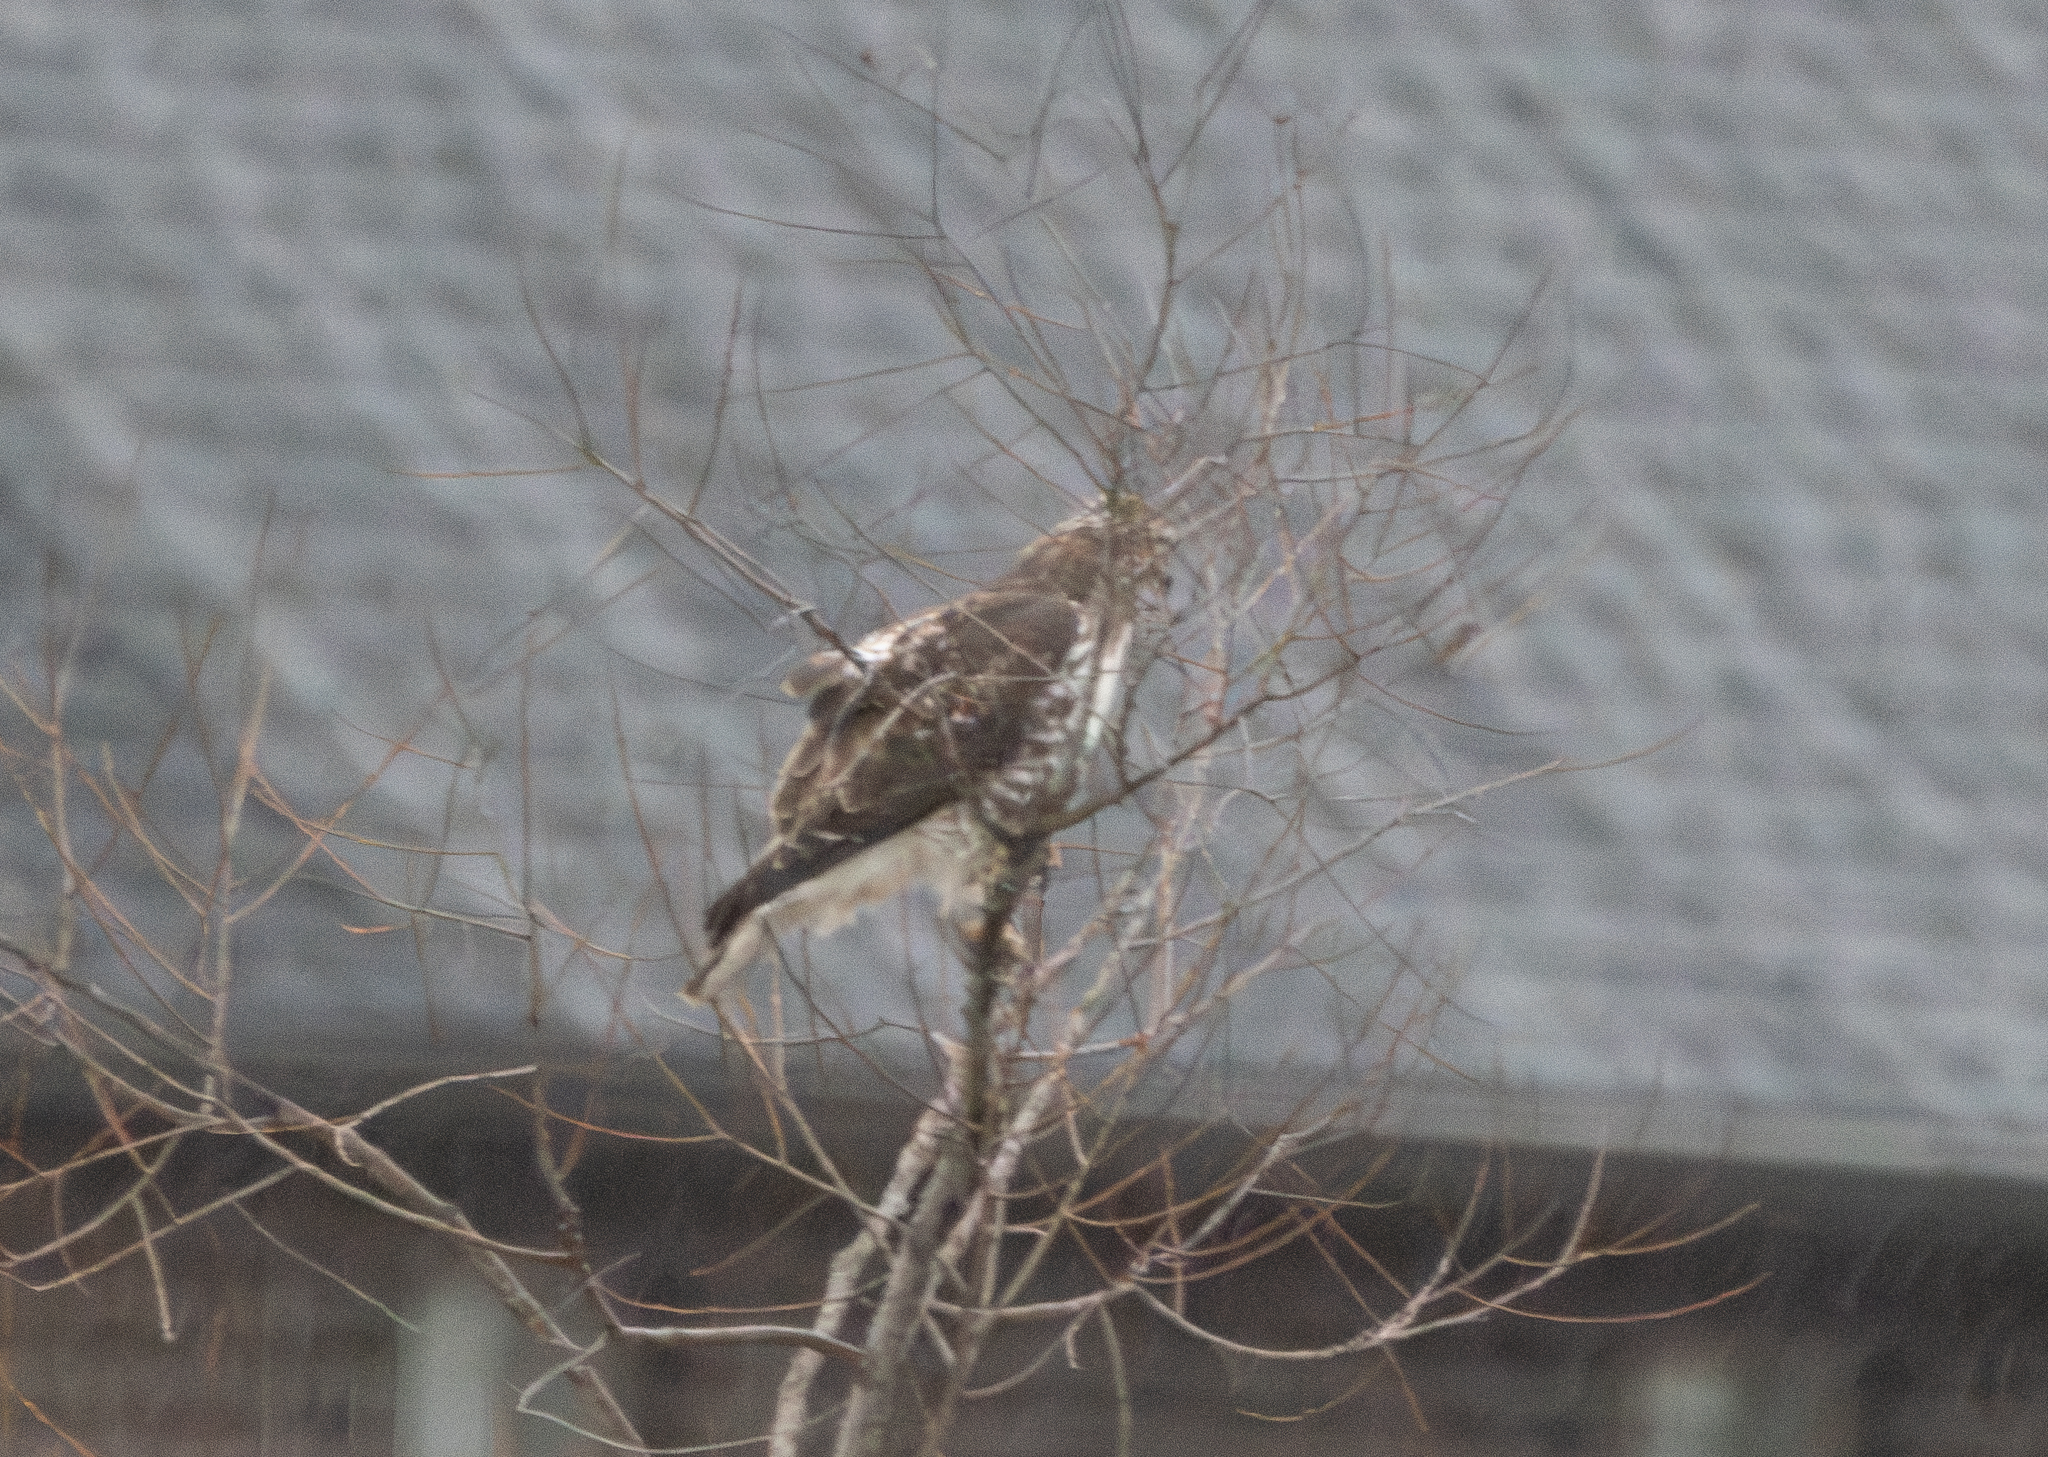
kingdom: Animalia
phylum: Chordata
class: Aves
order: Accipitriformes
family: Accipitridae
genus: Buteo
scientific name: Buteo jamaicensis
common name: Red-tailed hawk
